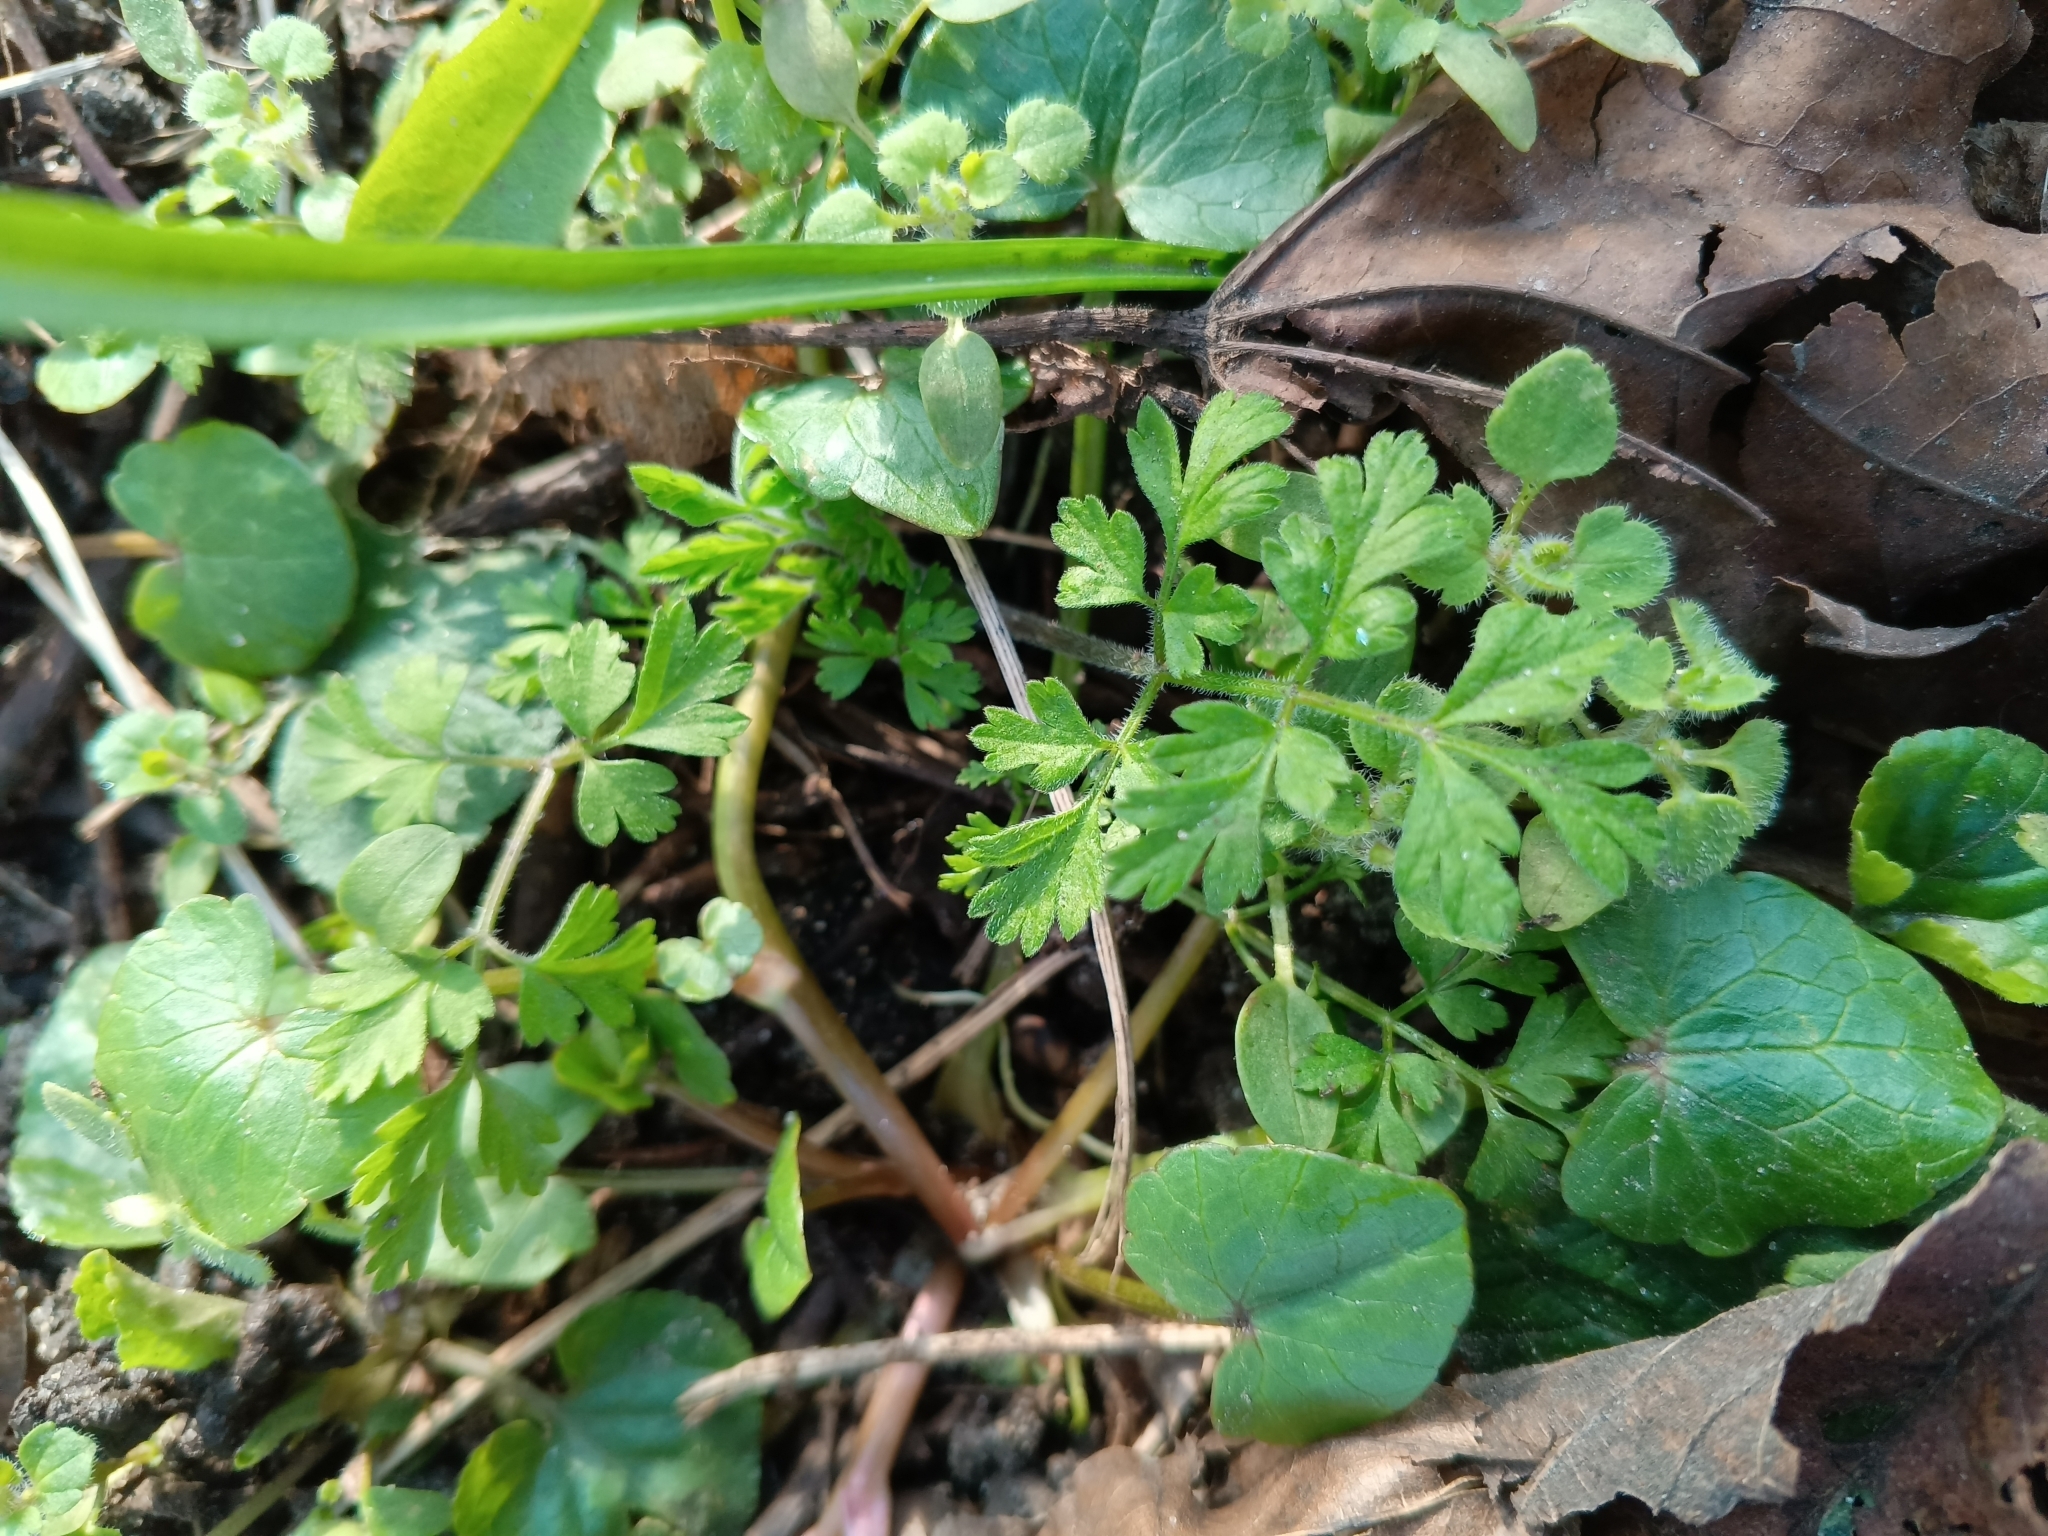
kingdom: Plantae
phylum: Tracheophyta
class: Magnoliopsida
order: Apiales
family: Apiaceae
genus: Chaerophyllum
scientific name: Chaerophyllum temulum
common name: Rough chervil
